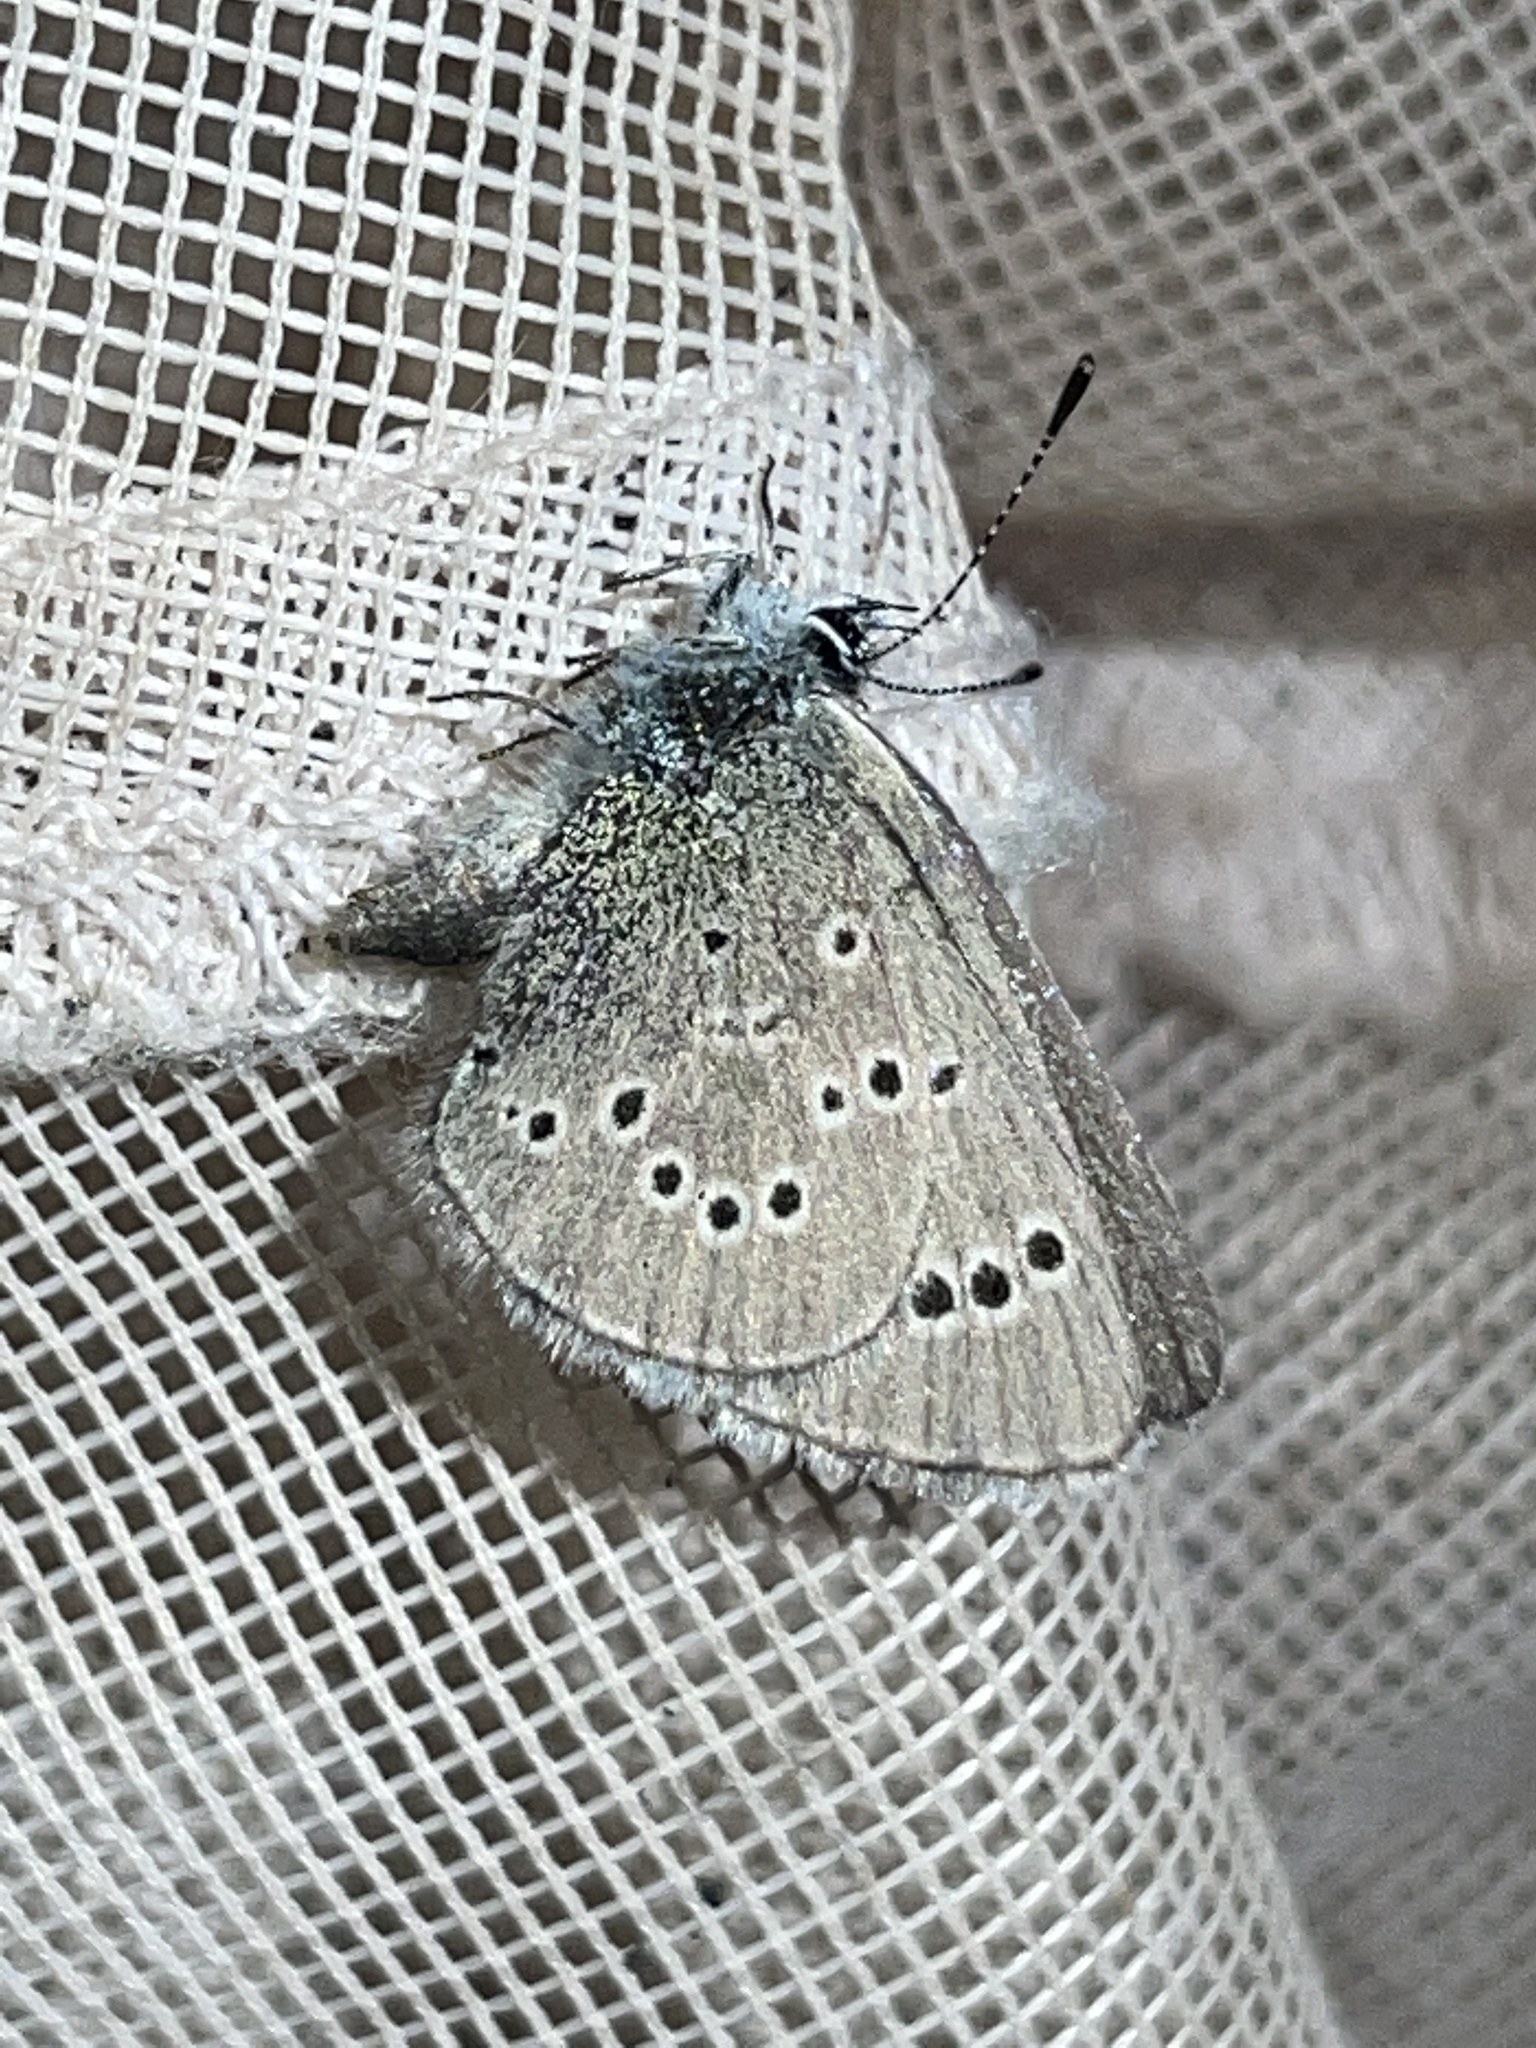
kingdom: Animalia
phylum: Arthropoda
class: Insecta
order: Lepidoptera
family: Lycaenidae
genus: Glaucopsyche
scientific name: Glaucopsyche lygdamus
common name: Silvery blue
